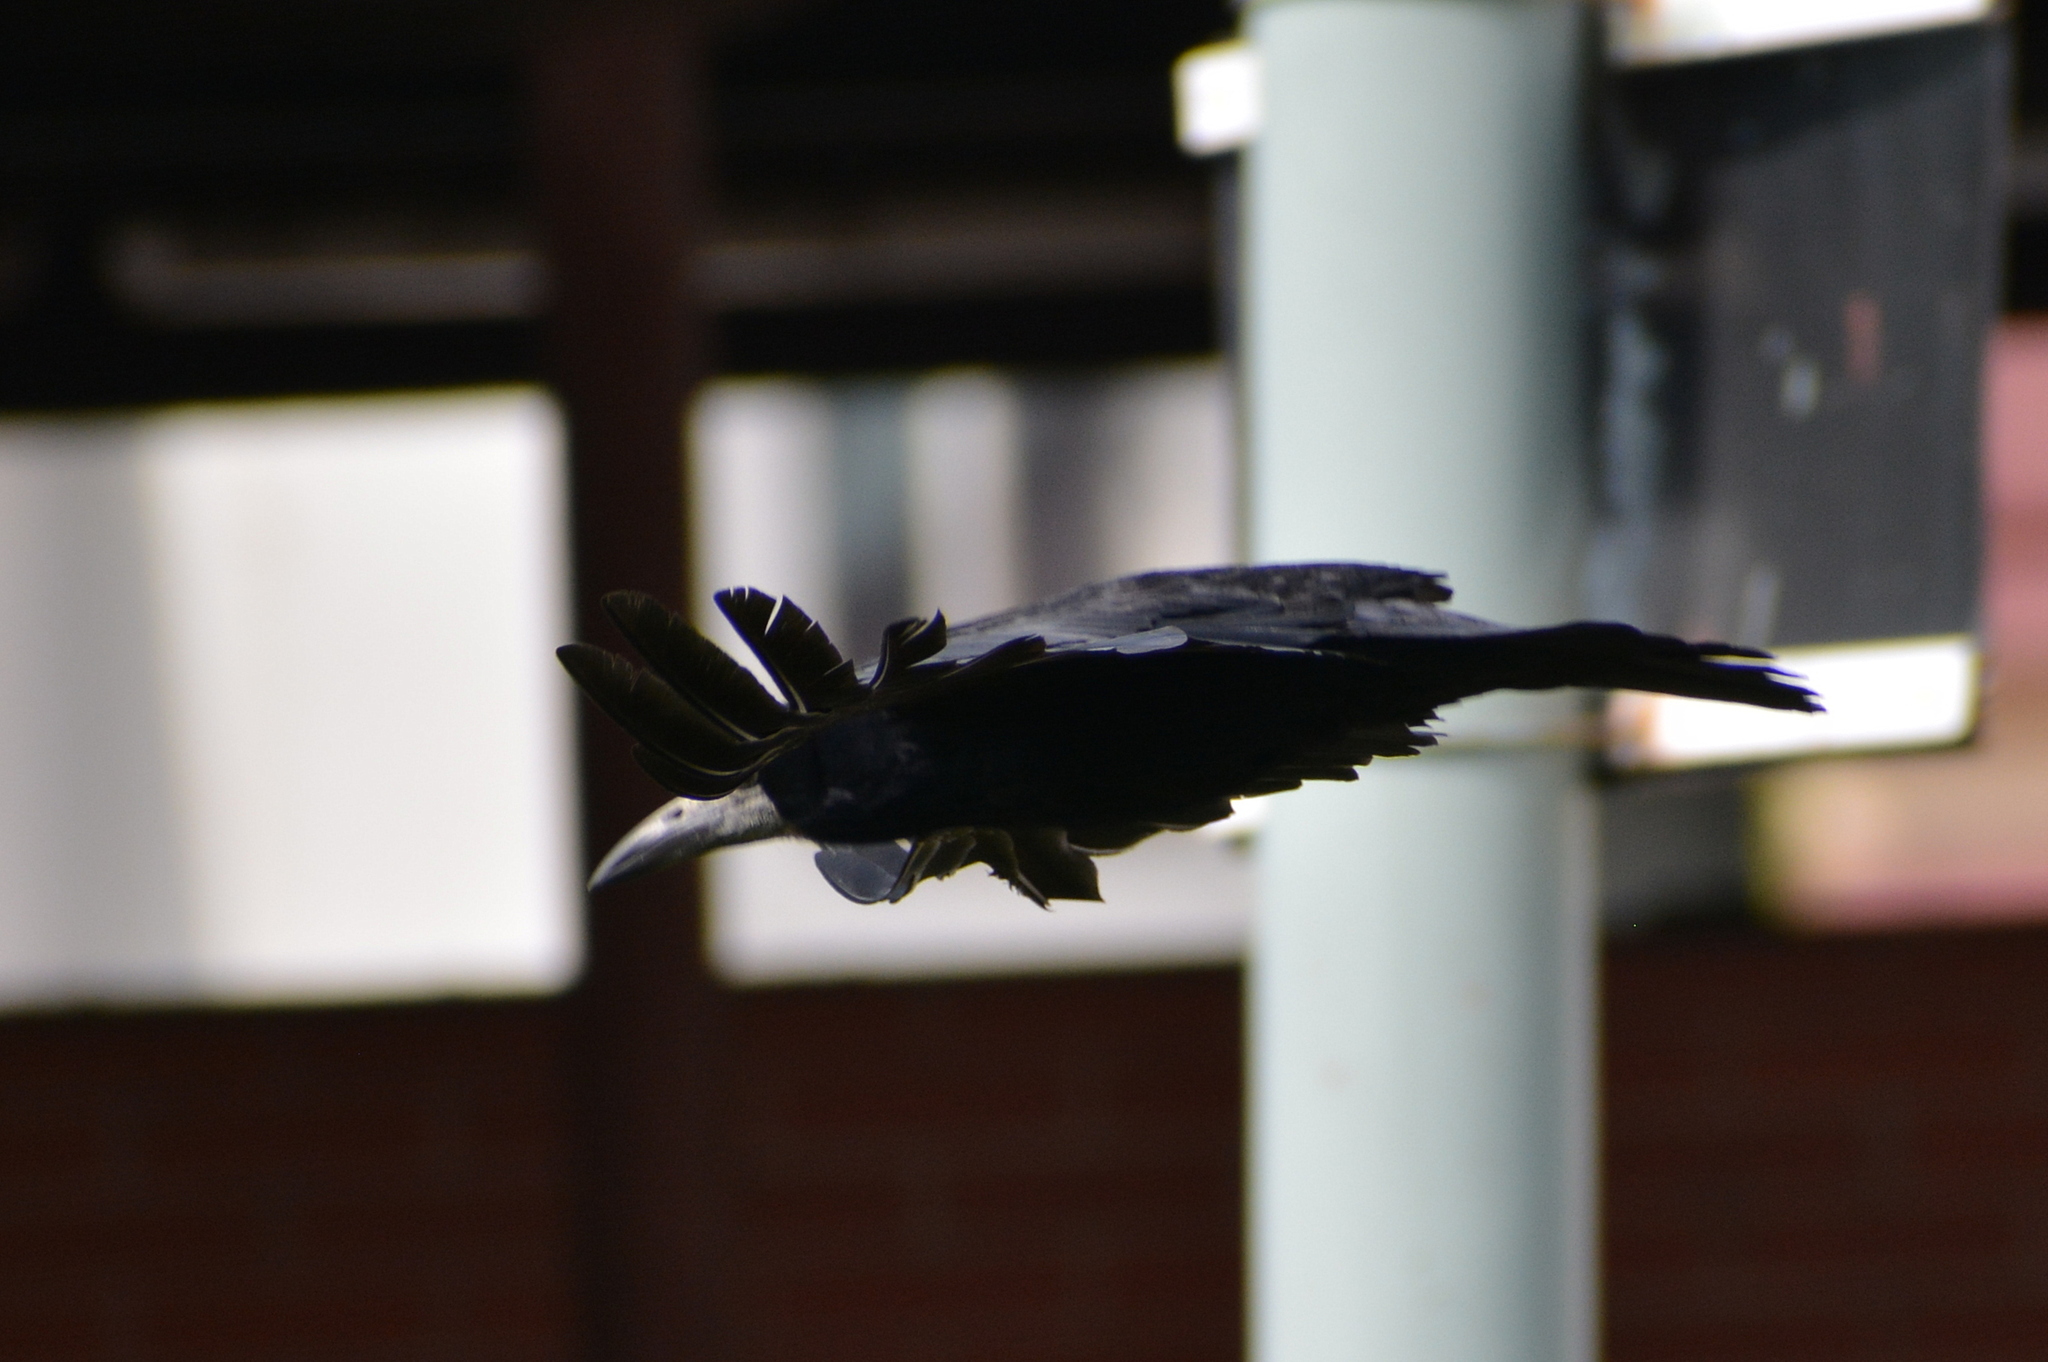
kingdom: Animalia
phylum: Chordata
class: Aves
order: Passeriformes
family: Corvidae
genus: Corvus
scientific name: Corvus frugilegus
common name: Rook
